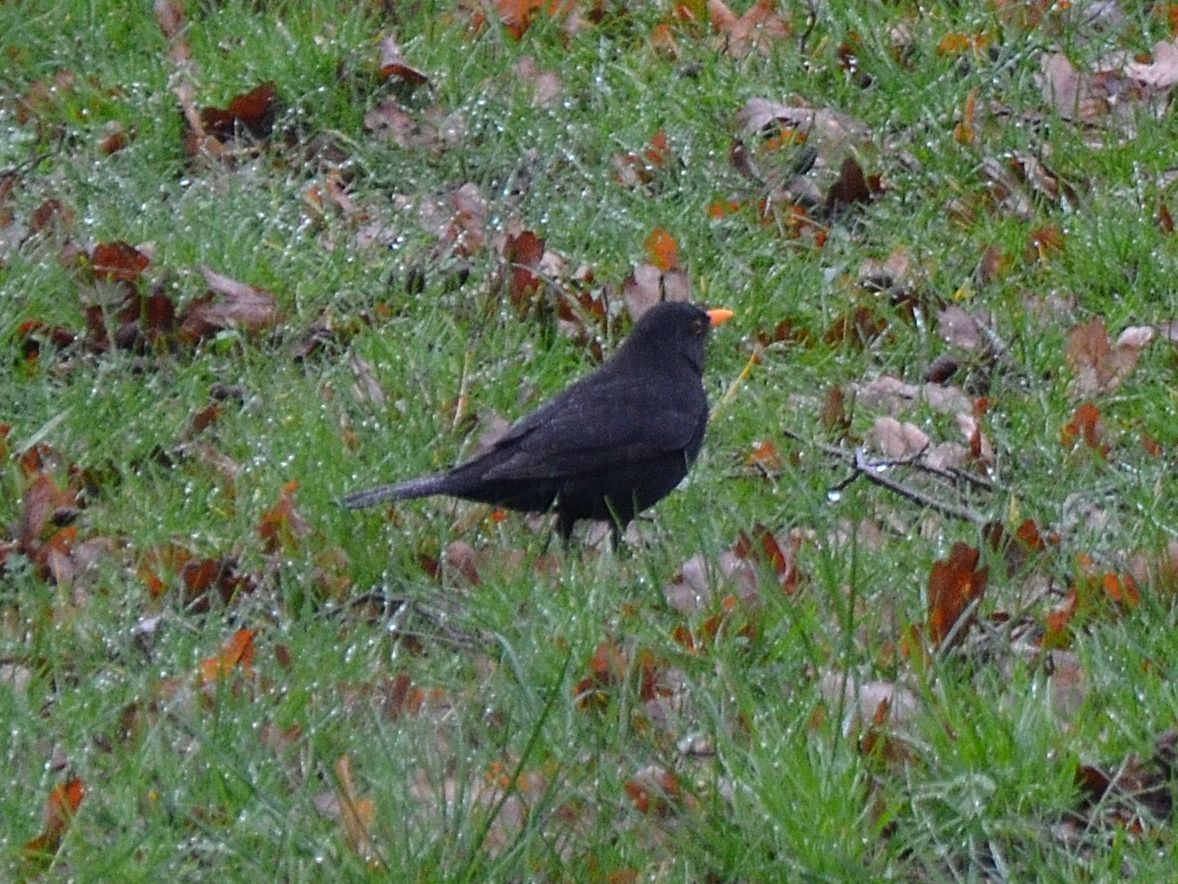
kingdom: Animalia
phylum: Chordata
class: Aves
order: Passeriformes
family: Turdidae
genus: Turdus
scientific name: Turdus merula
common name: Common blackbird
